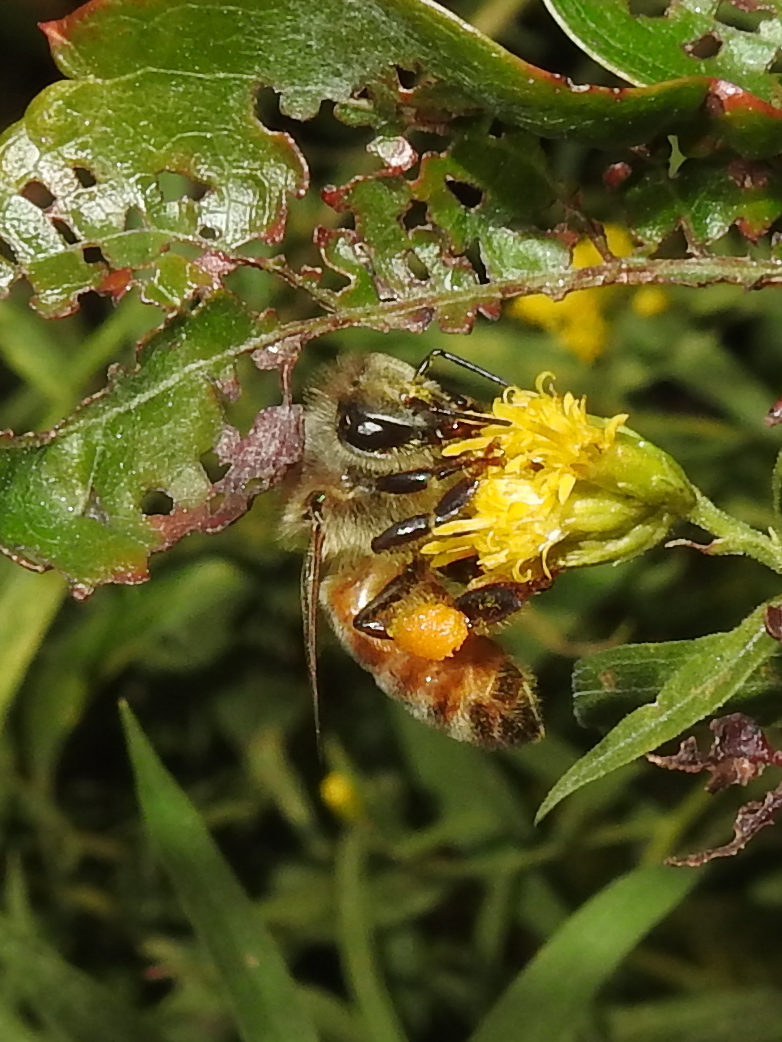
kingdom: Animalia
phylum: Arthropoda
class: Insecta
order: Hymenoptera
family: Apidae
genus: Apis
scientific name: Apis mellifera
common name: Honey bee
